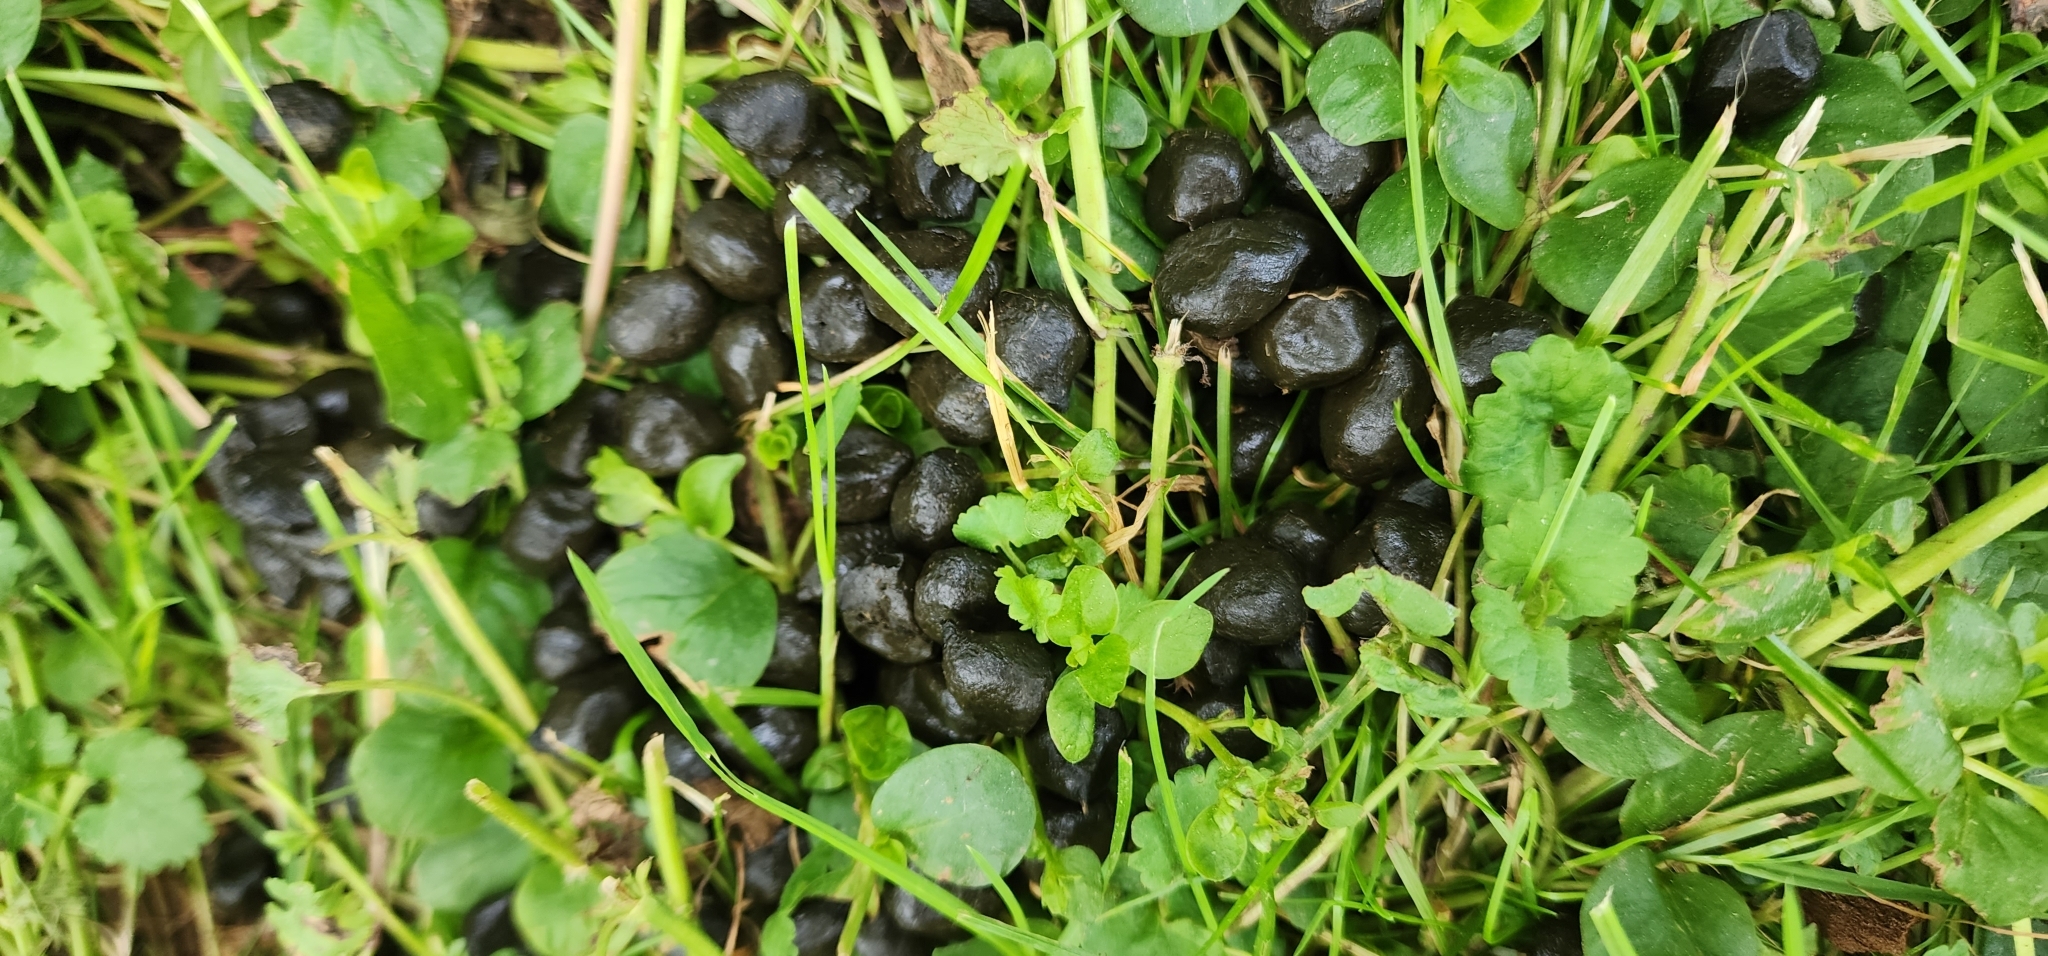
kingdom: Animalia
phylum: Chordata
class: Mammalia
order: Artiodactyla
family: Cervidae
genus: Odocoileus
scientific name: Odocoileus virginianus
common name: White-tailed deer
